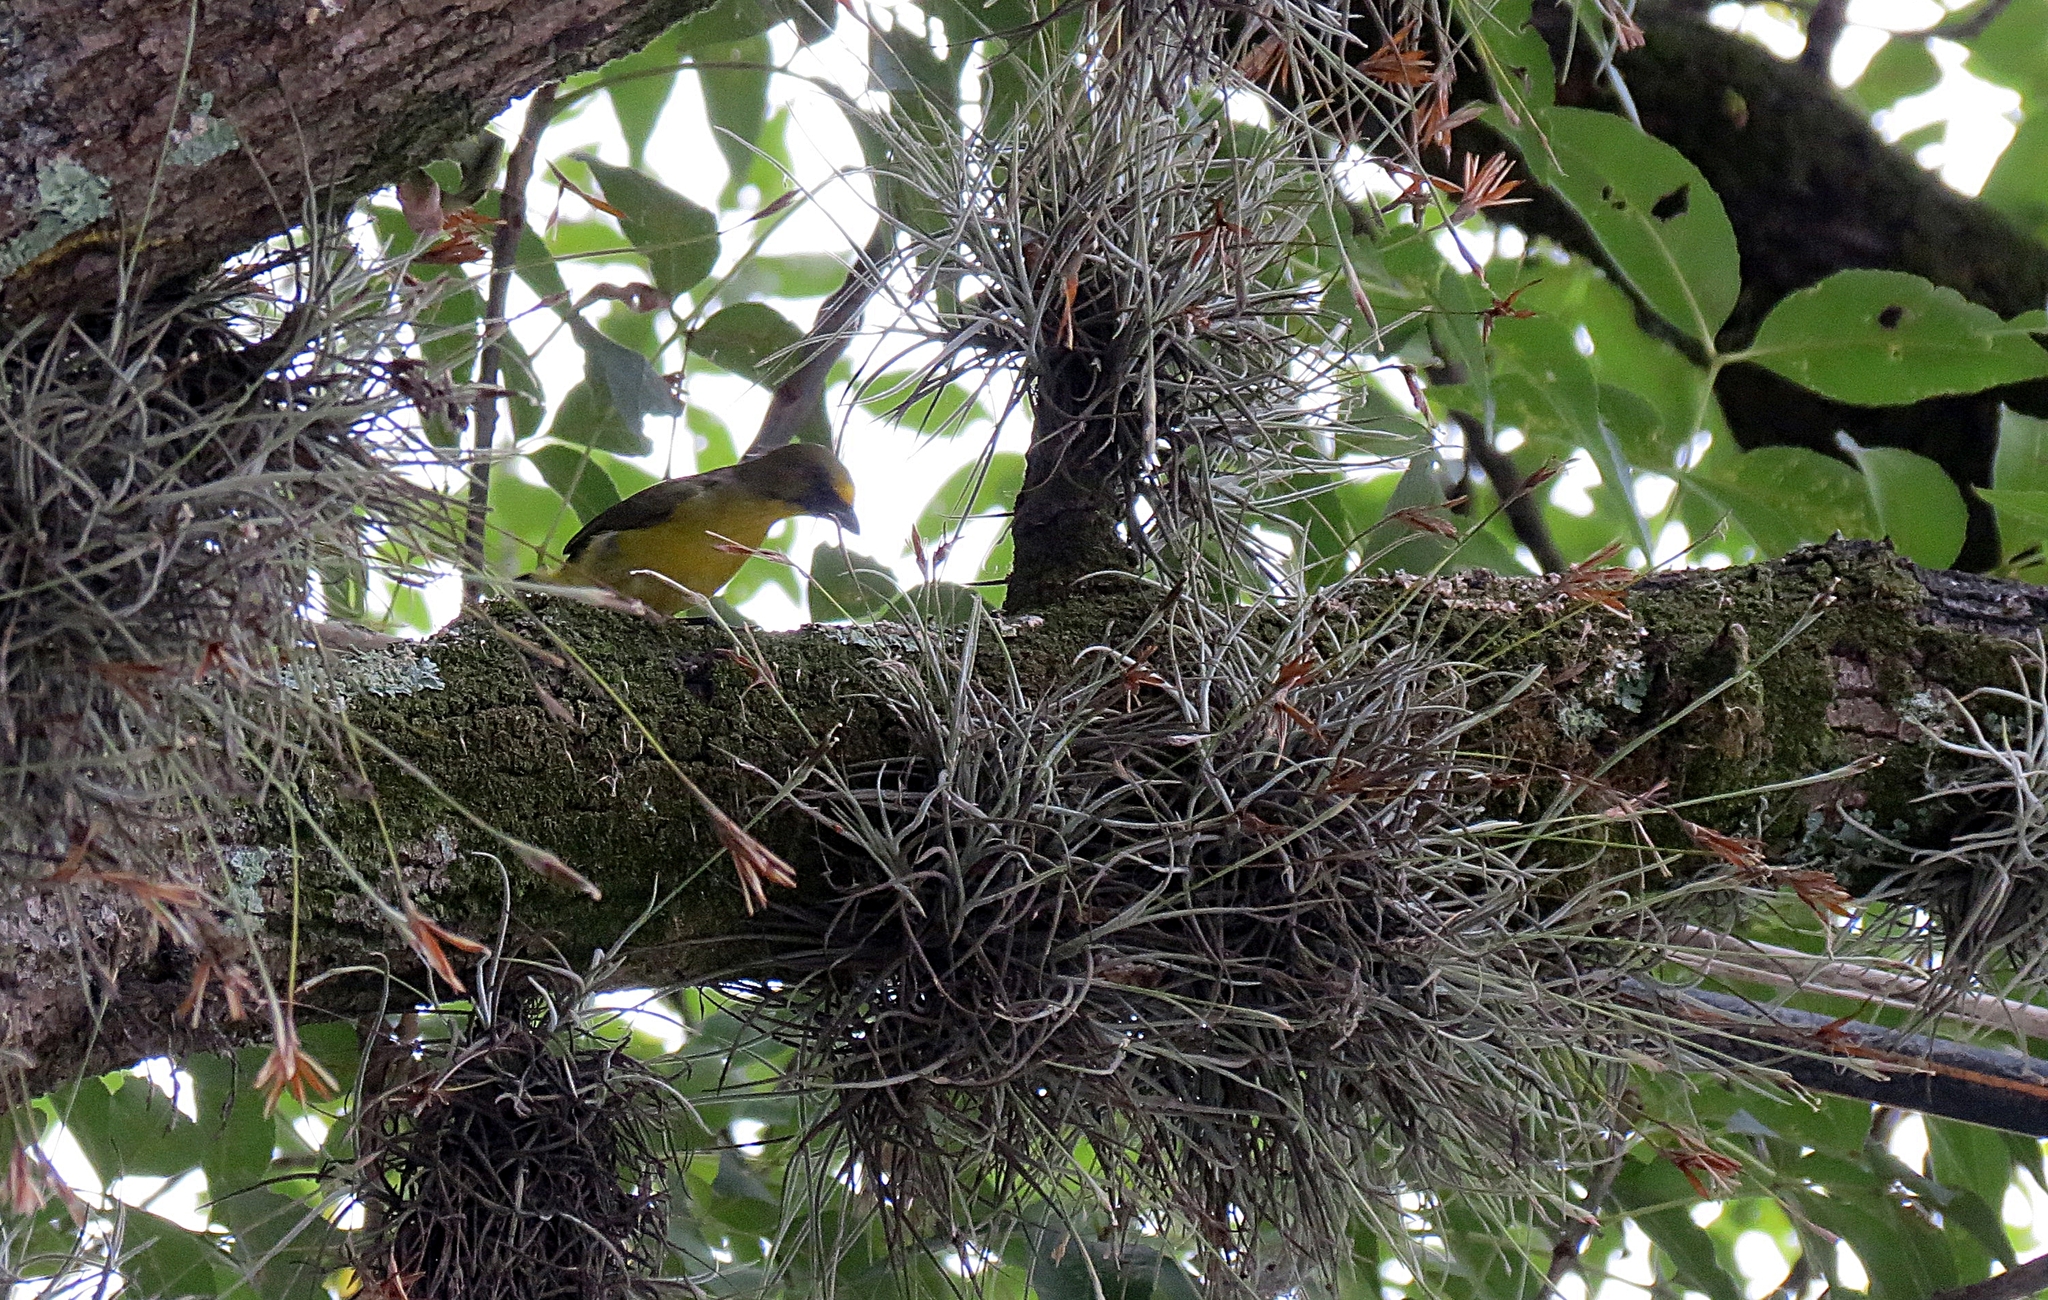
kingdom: Animalia
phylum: Chordata
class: Aves
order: Passeriformes
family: Fringillidae
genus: Euphonia
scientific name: Euphonia laniirostris
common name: Thick-billed euphonia
